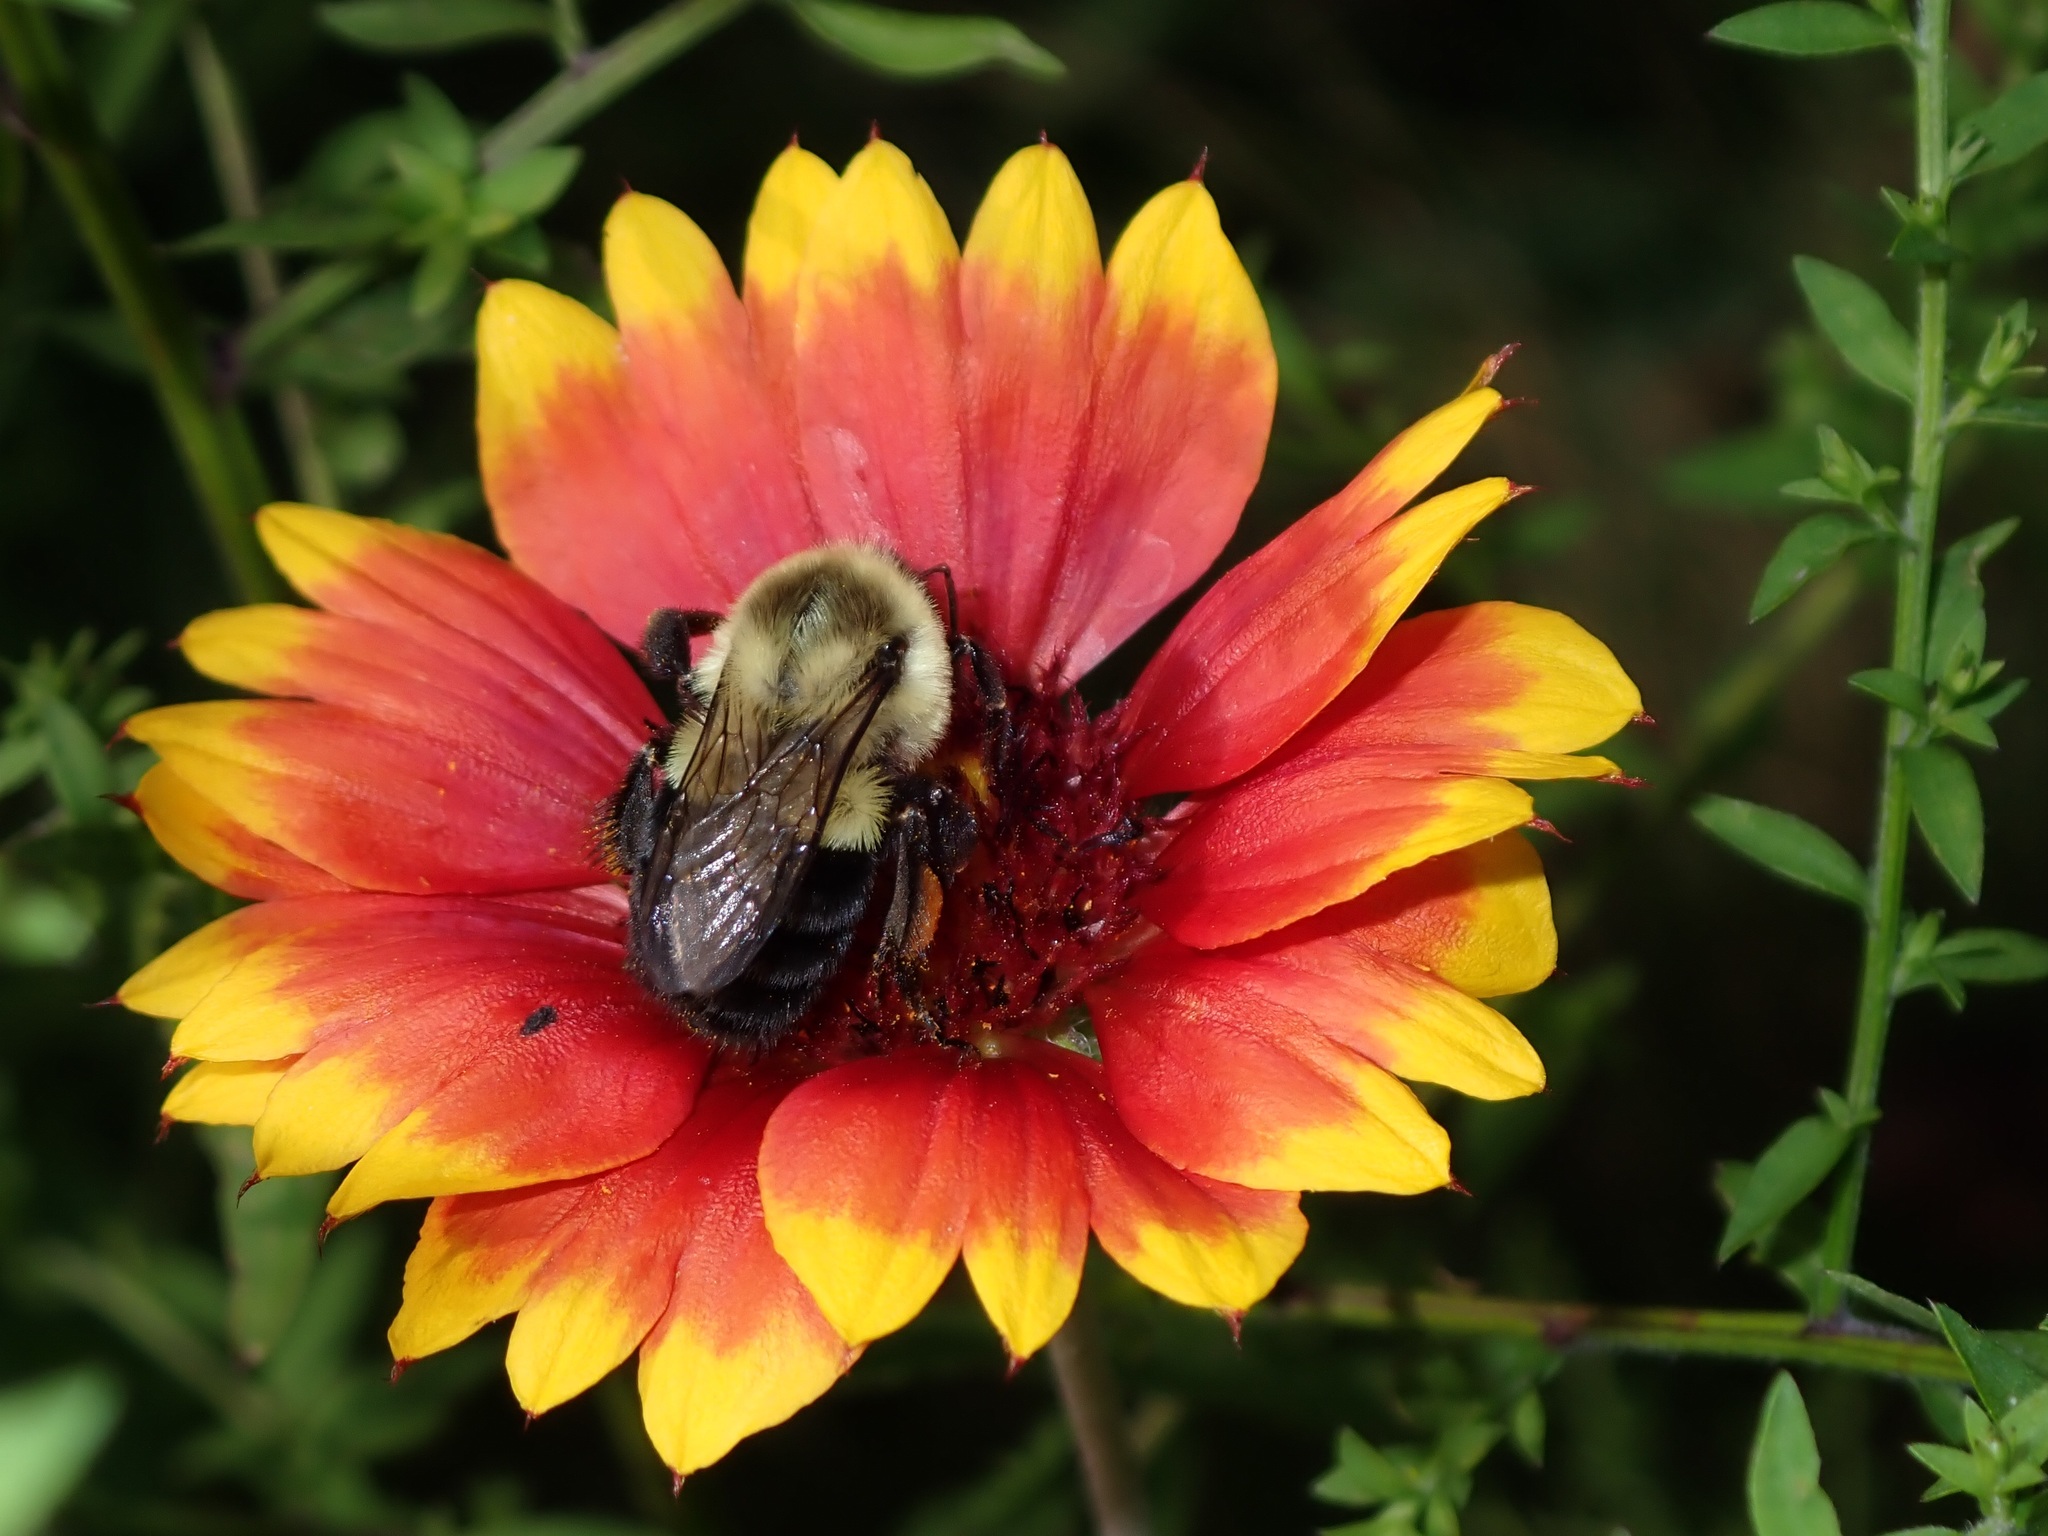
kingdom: Animalia
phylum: Arthropoda
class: Insecta
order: Hymenoptera
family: Apidae
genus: Bombus
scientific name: Bombus impatiens
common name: Common eastern bumble bee
